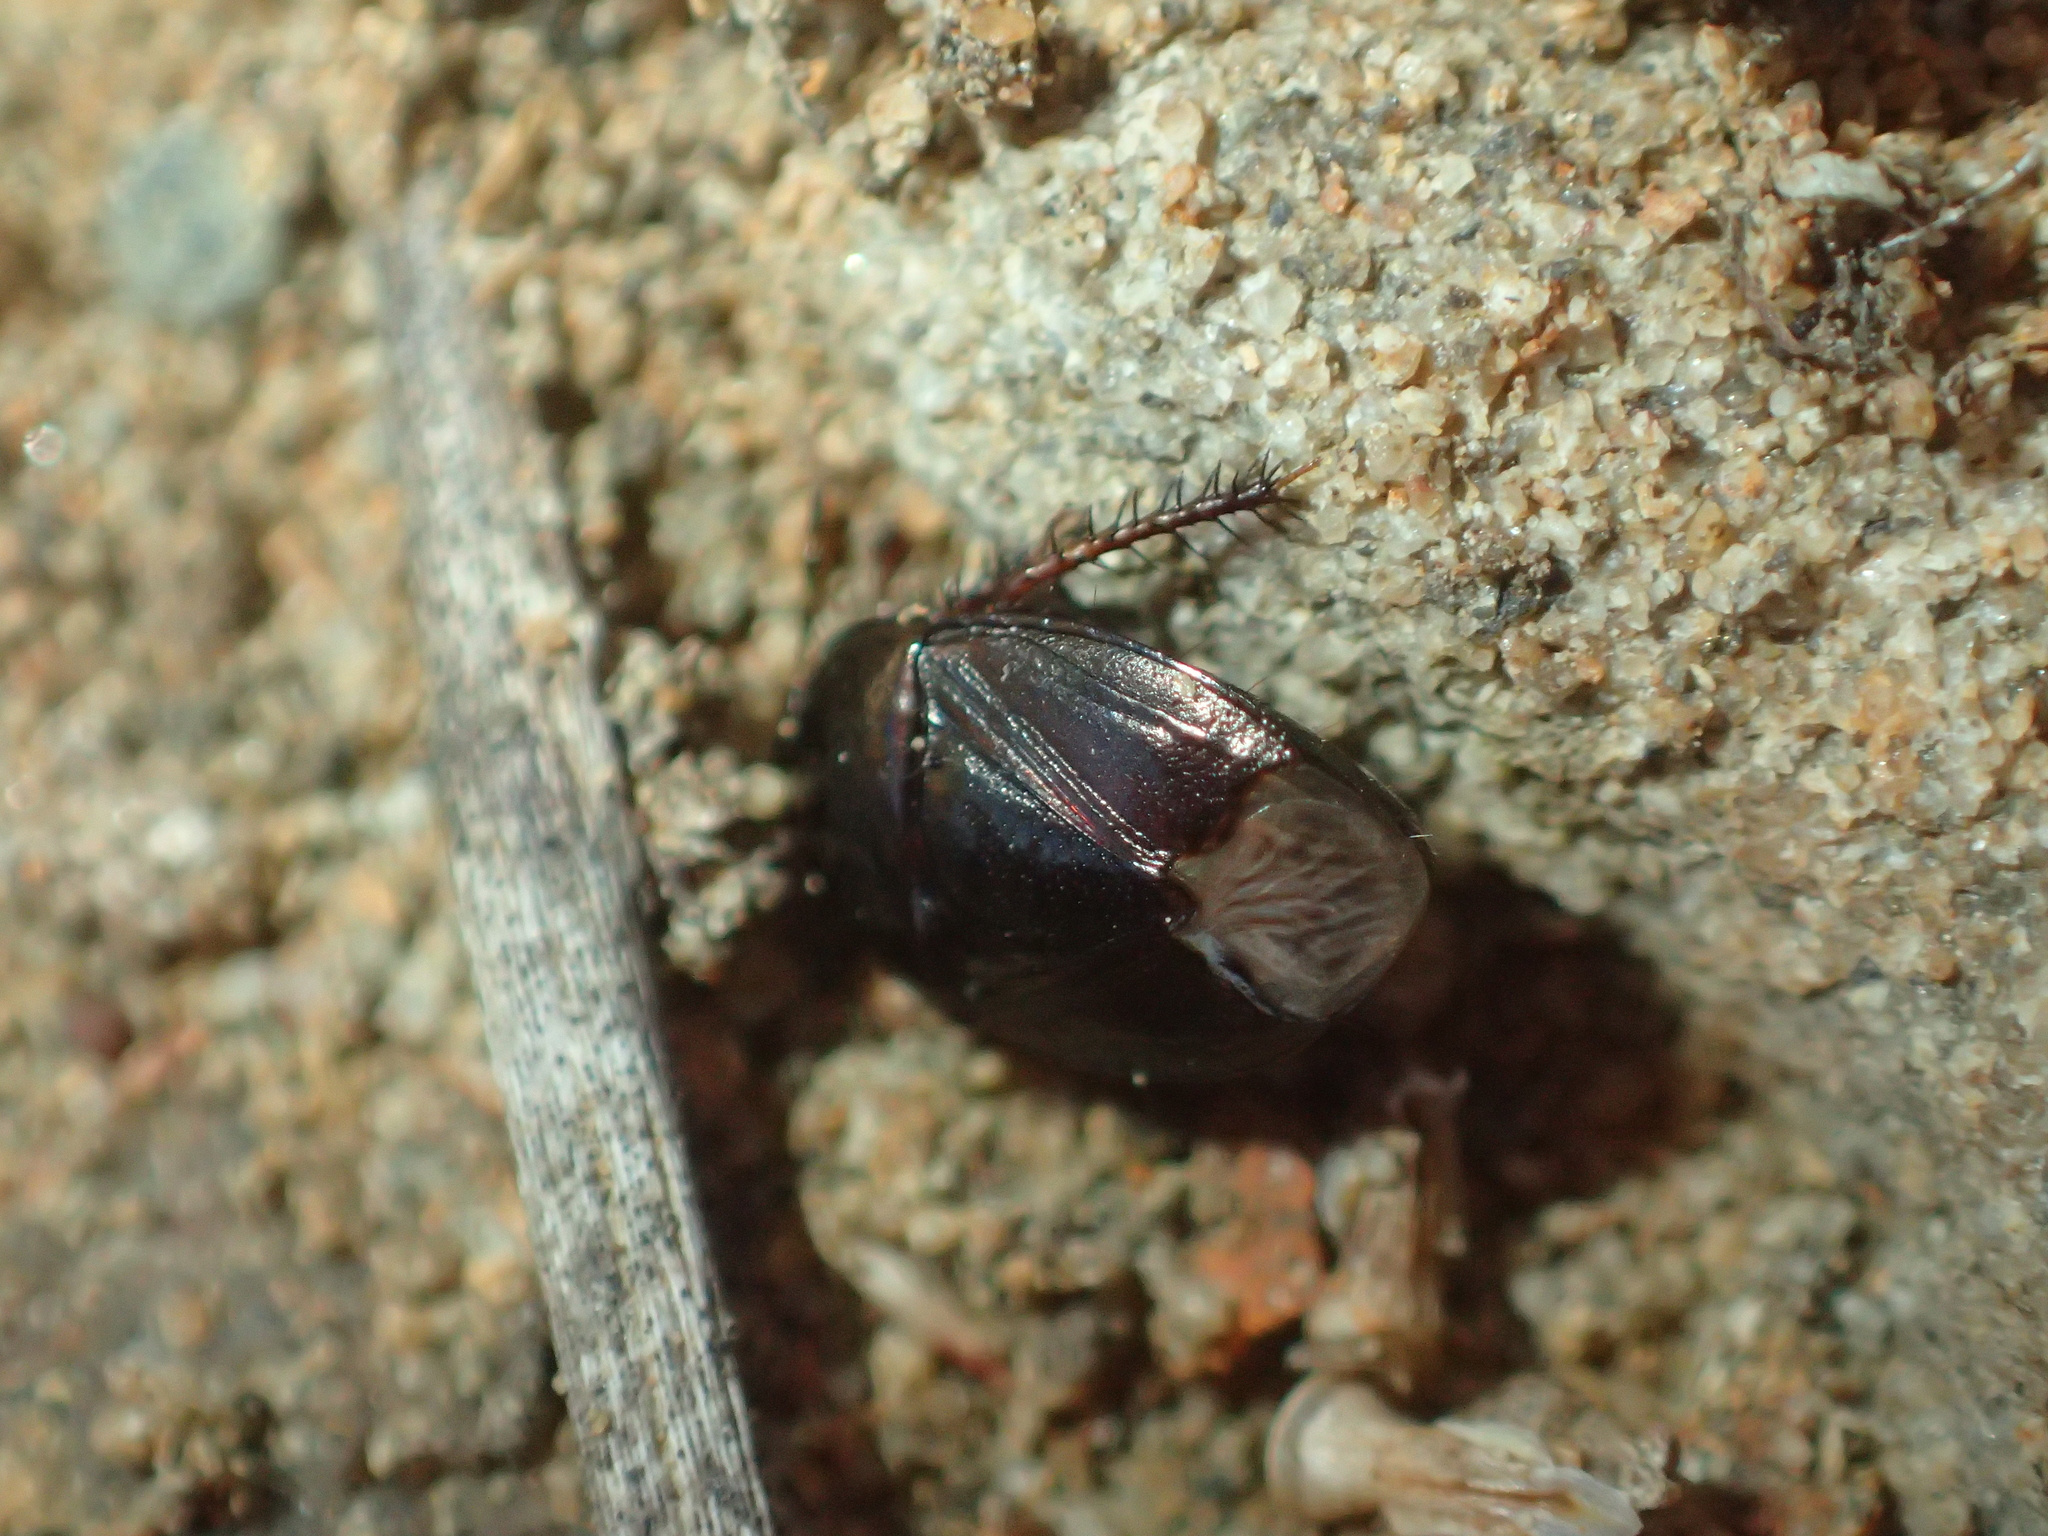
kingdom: Animalia
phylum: Arthropoda
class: Insecta
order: Hemiptera
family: Cydnidae
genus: Macroscytus
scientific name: Macroscytus australis
